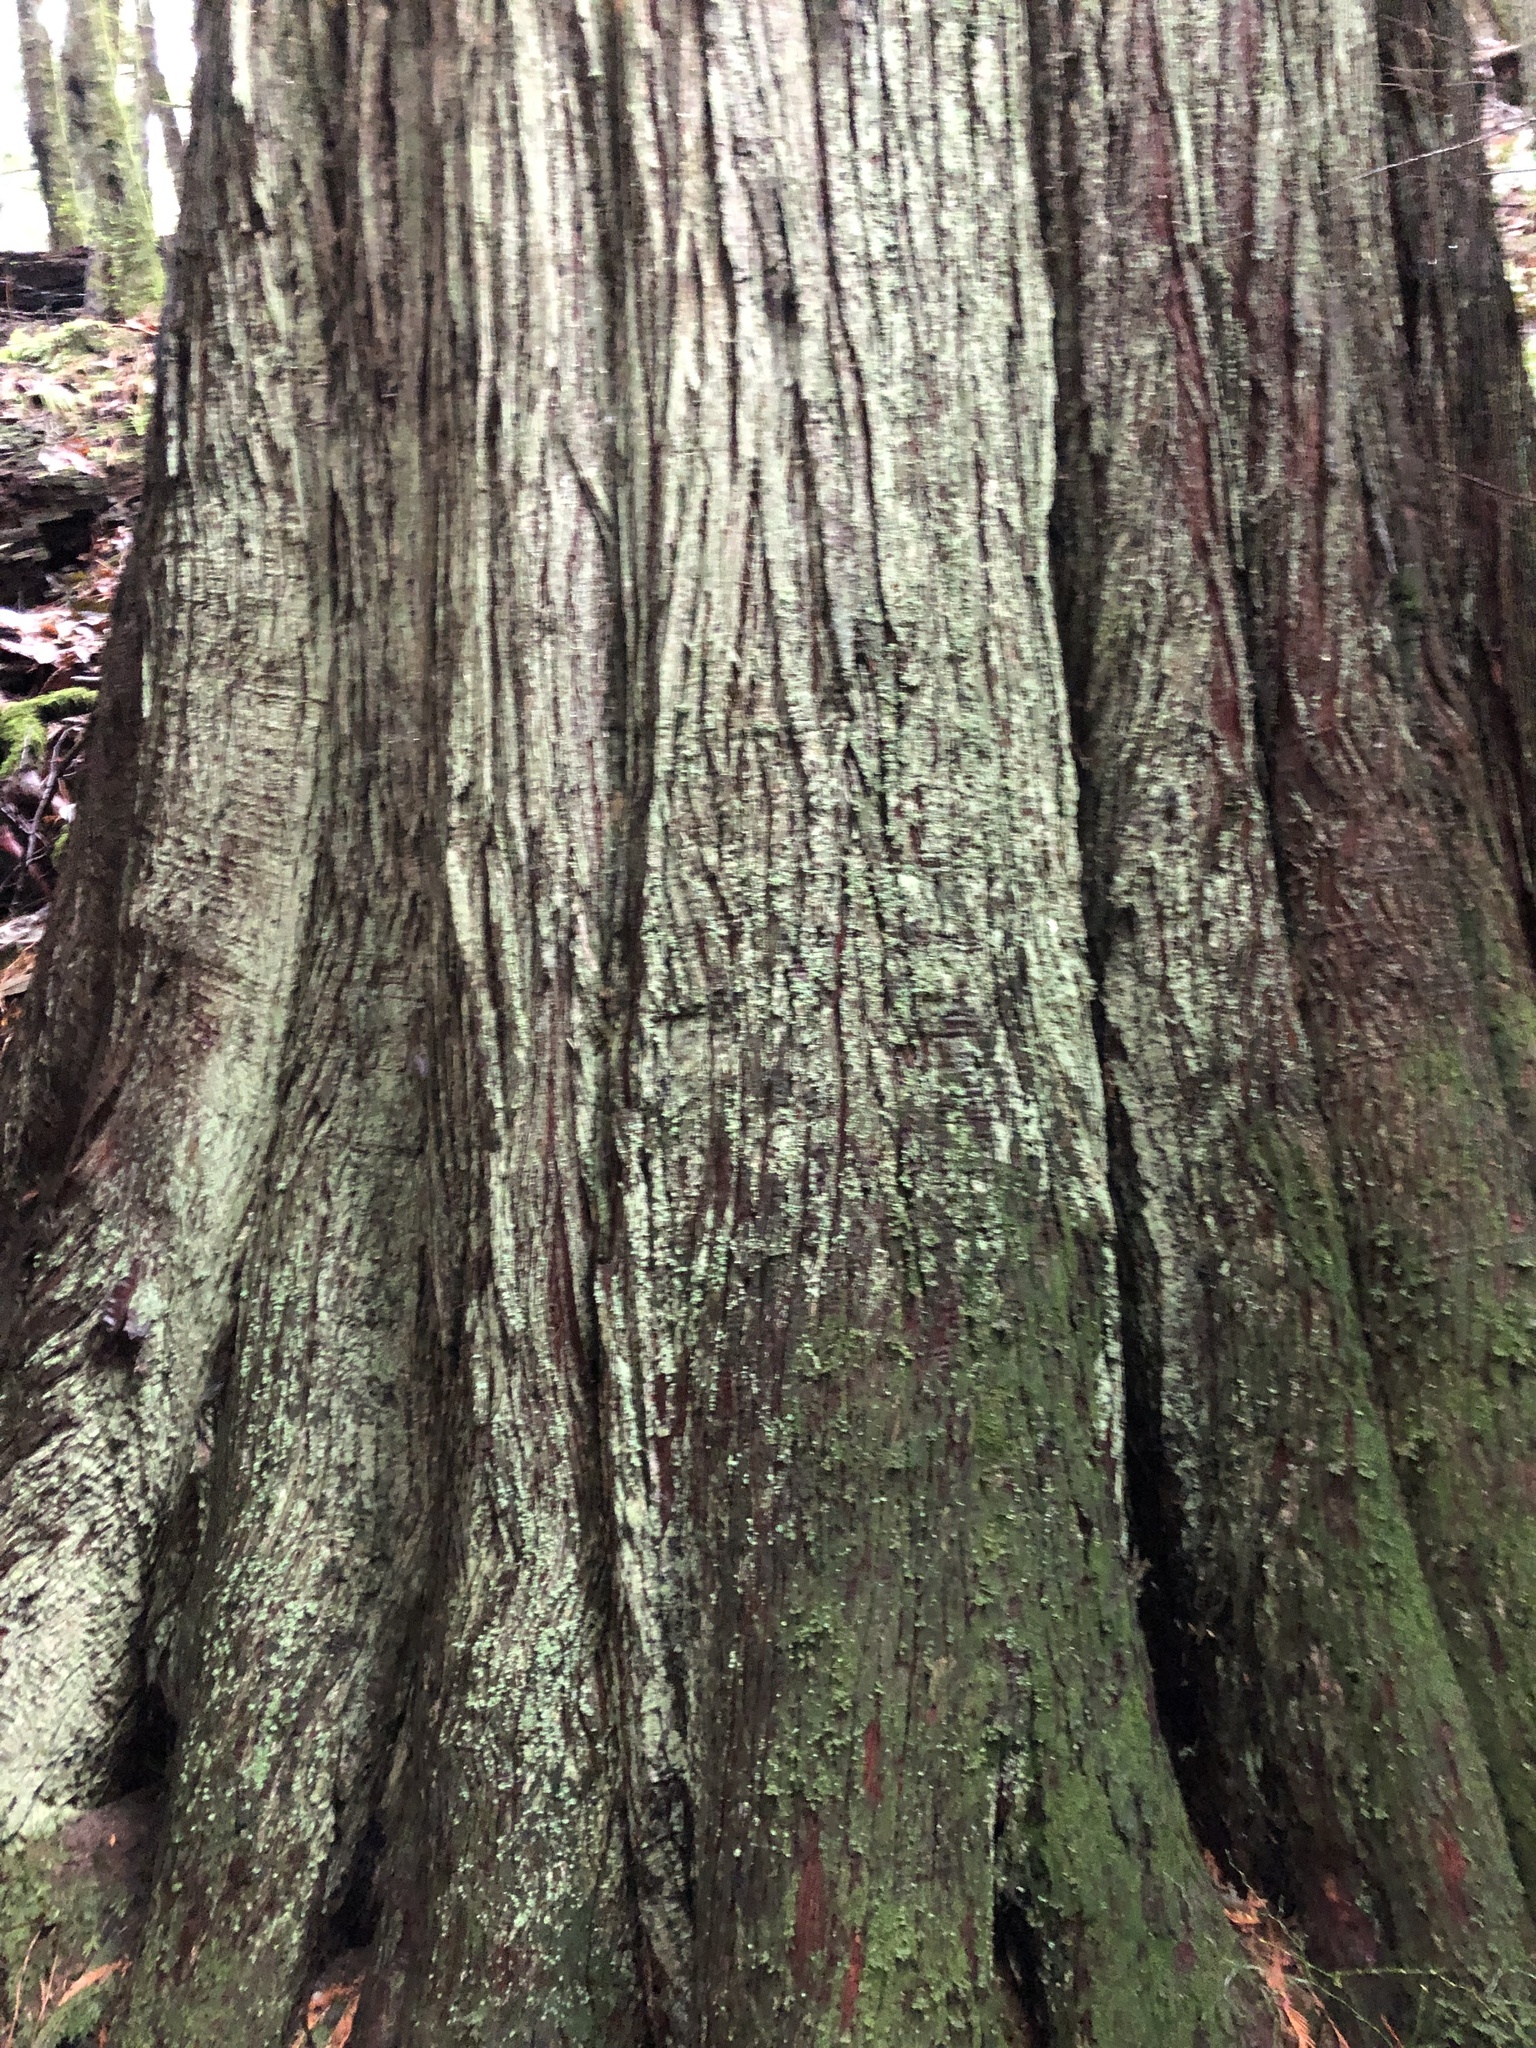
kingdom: Plantae
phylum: Tracheophyta
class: Pinopsida
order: Pinales
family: Cupressaceae
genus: Thuja
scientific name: Thuja plicata
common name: Western red-cedar
